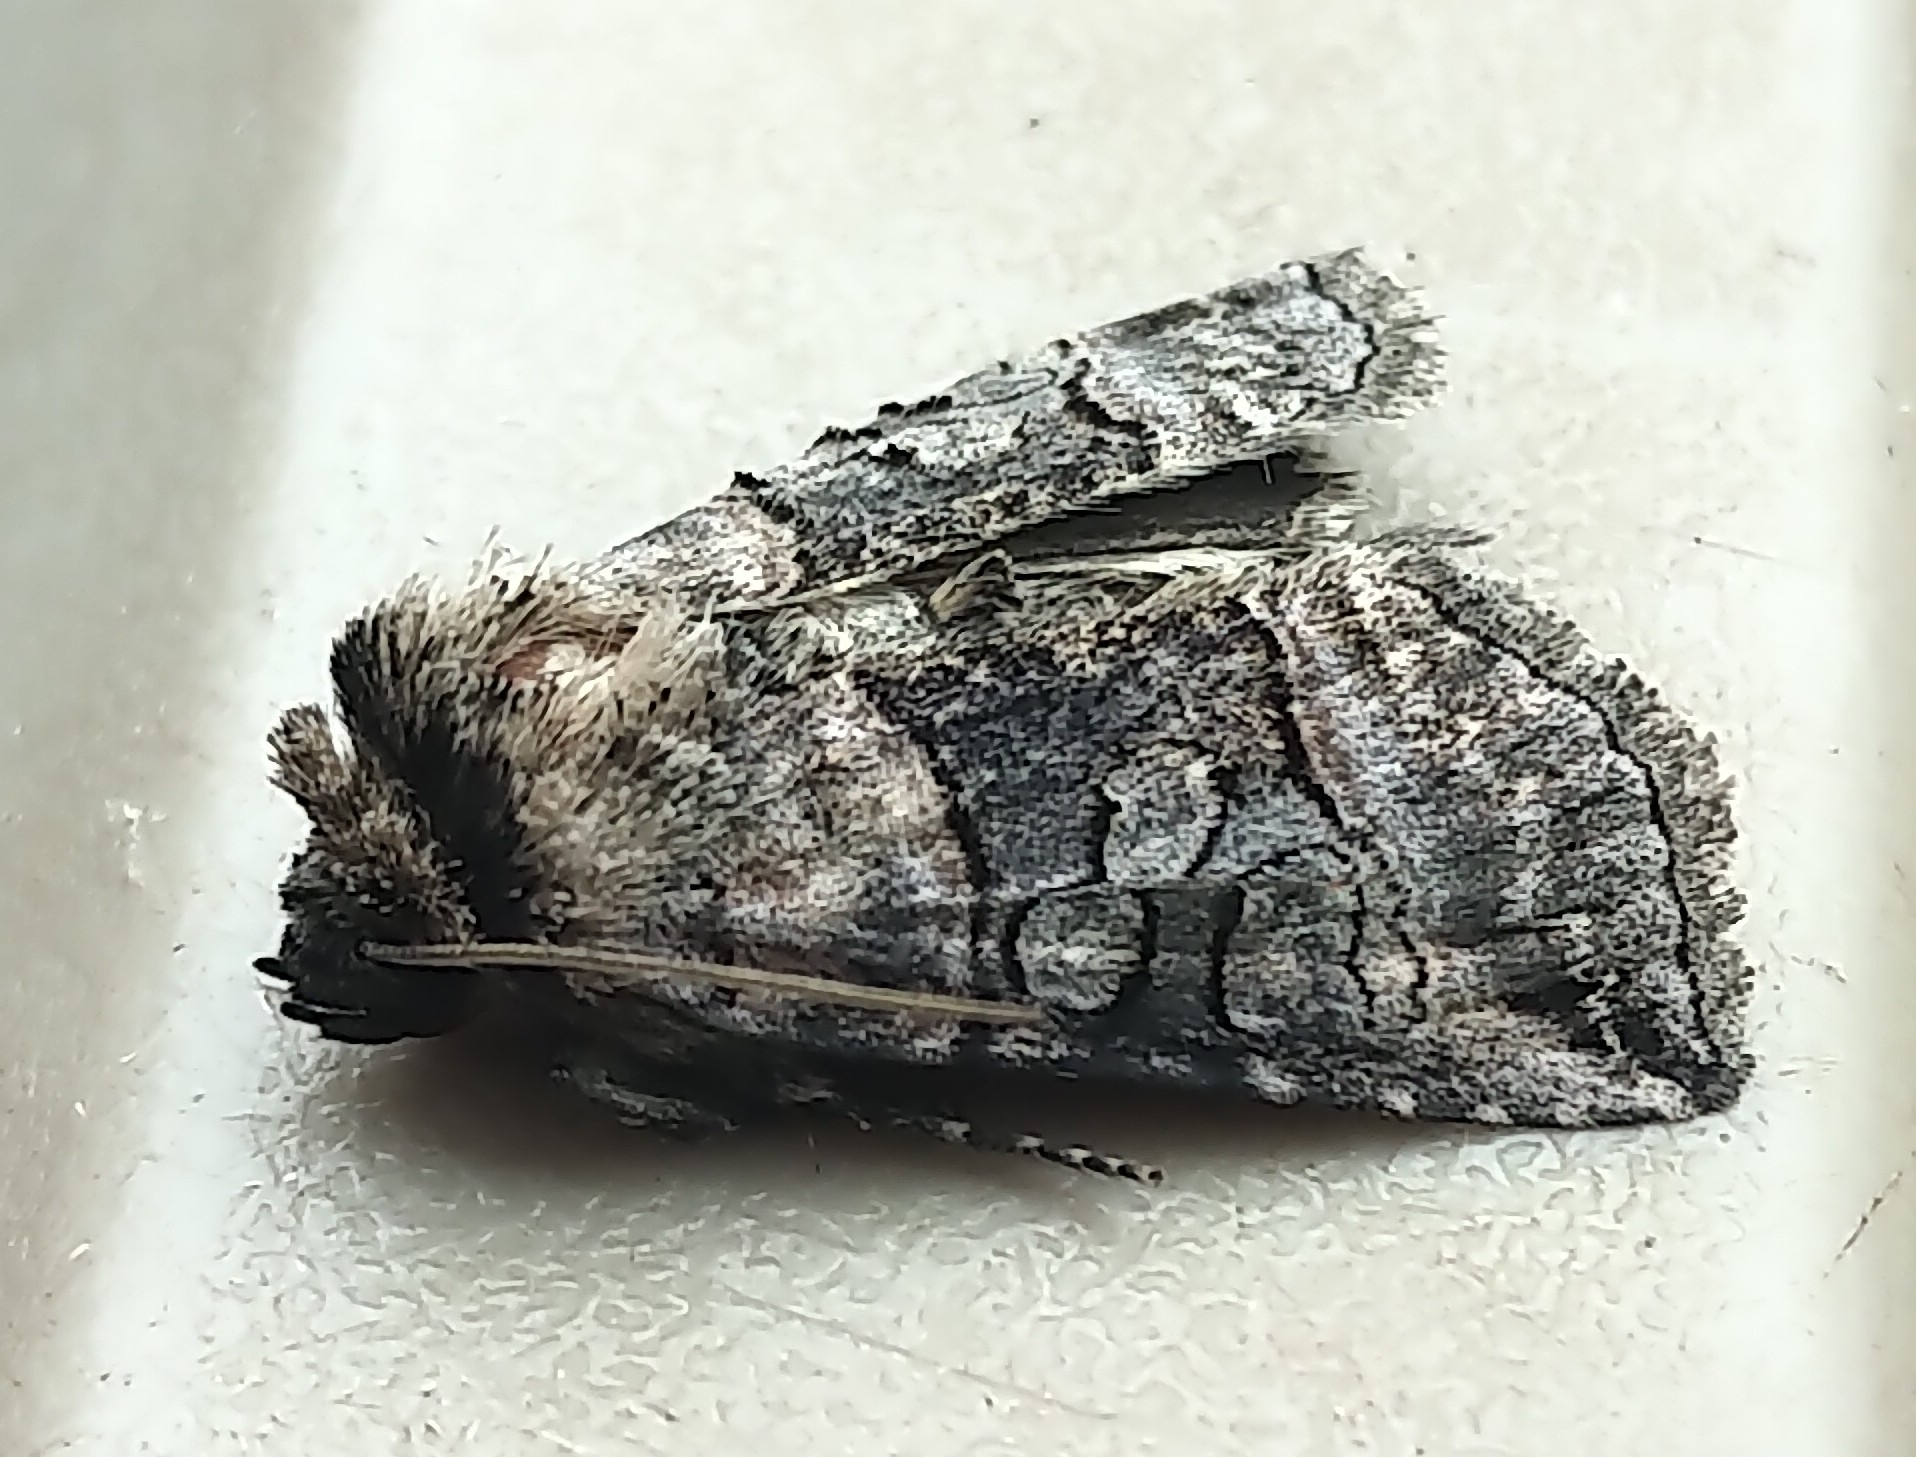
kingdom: Animalia
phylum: Arthropoda
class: Insecta
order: Lepidoptera
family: Noctuidae
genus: Abrostola
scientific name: Abrostola urentis
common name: Spectacled nettle moth
